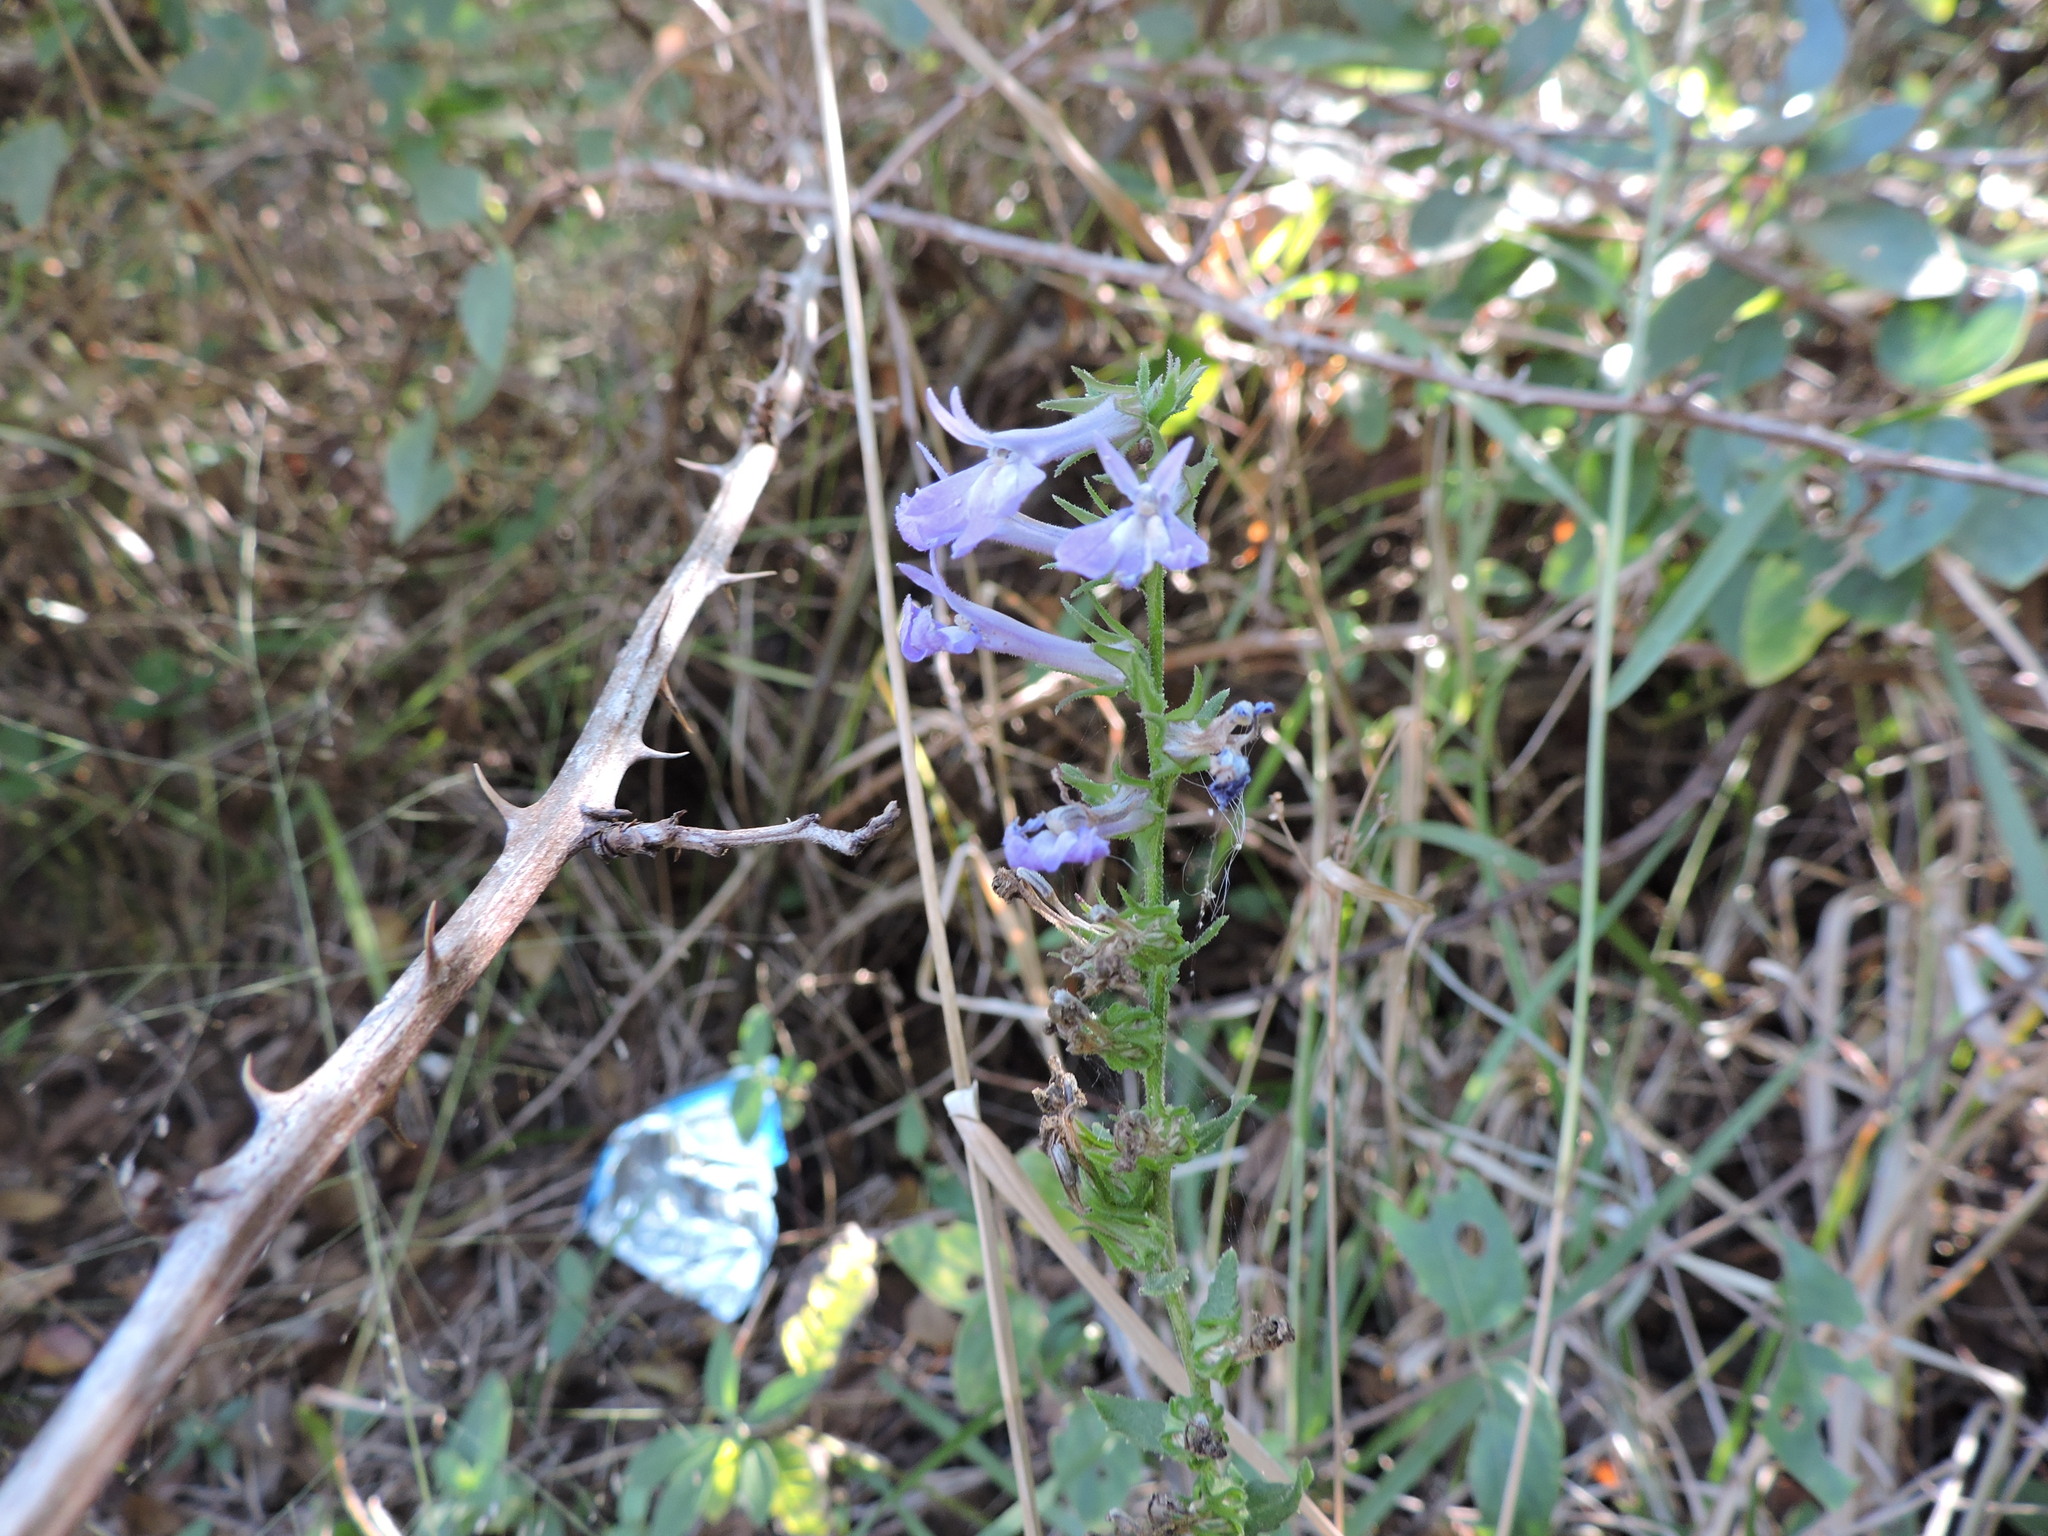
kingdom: Plantae
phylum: Tracheophyta
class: Magnoliopsida
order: Asterales
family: Campanulaceae
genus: Lobelia
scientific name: Lobelia puberula
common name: Purple dewdrop
